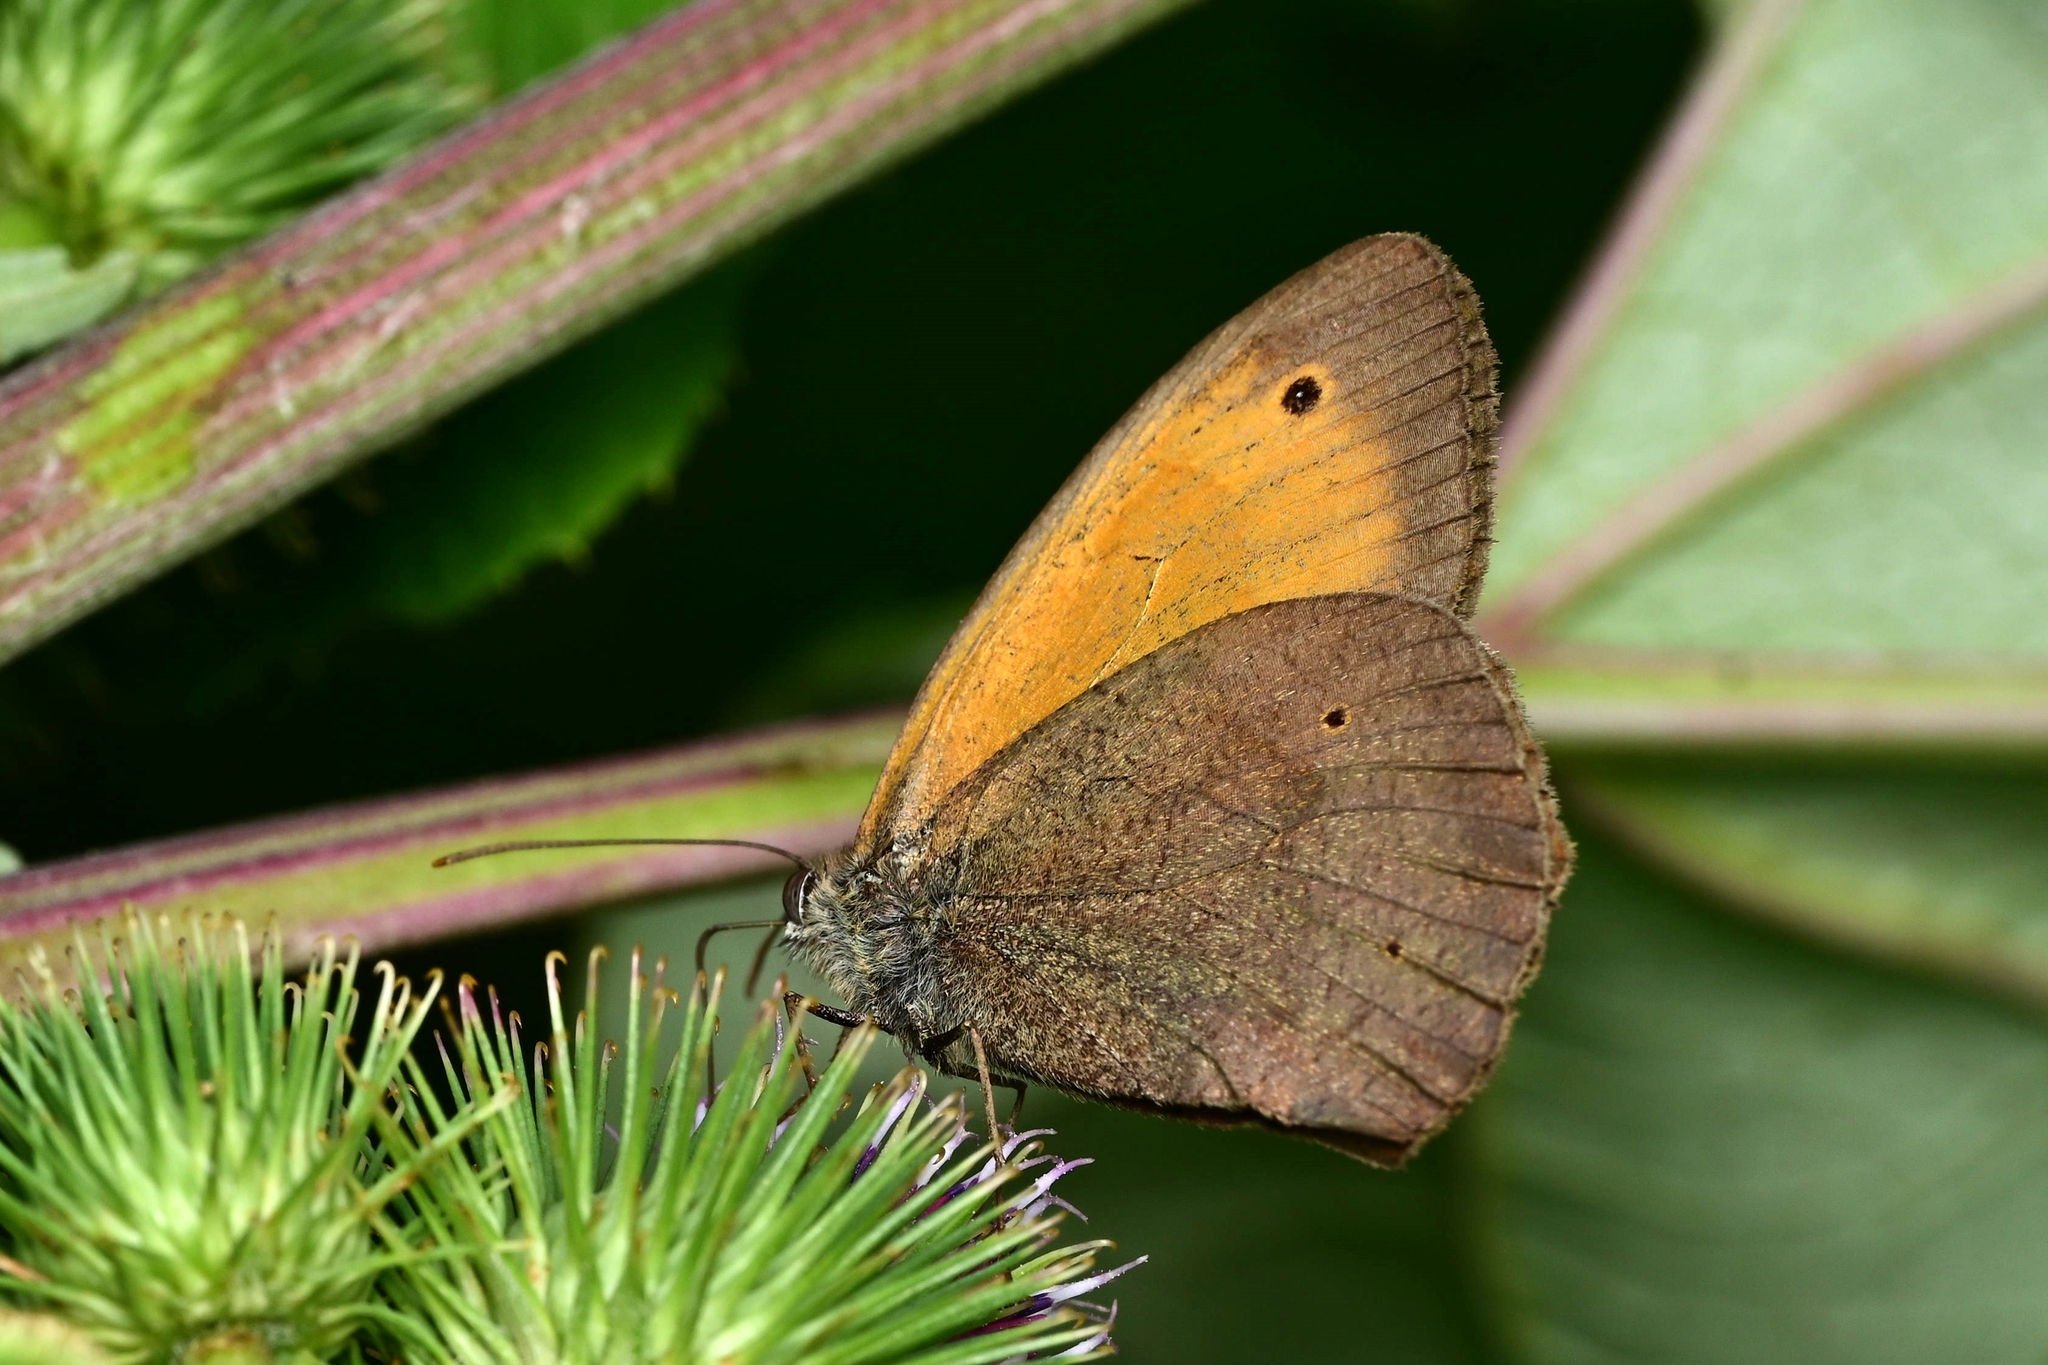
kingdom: Animalia
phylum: Arthropoda
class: Insecta
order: Lepidoptera
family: Nymphalidae
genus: Maniola
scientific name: Maniola jurtina
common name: Meadow brown
